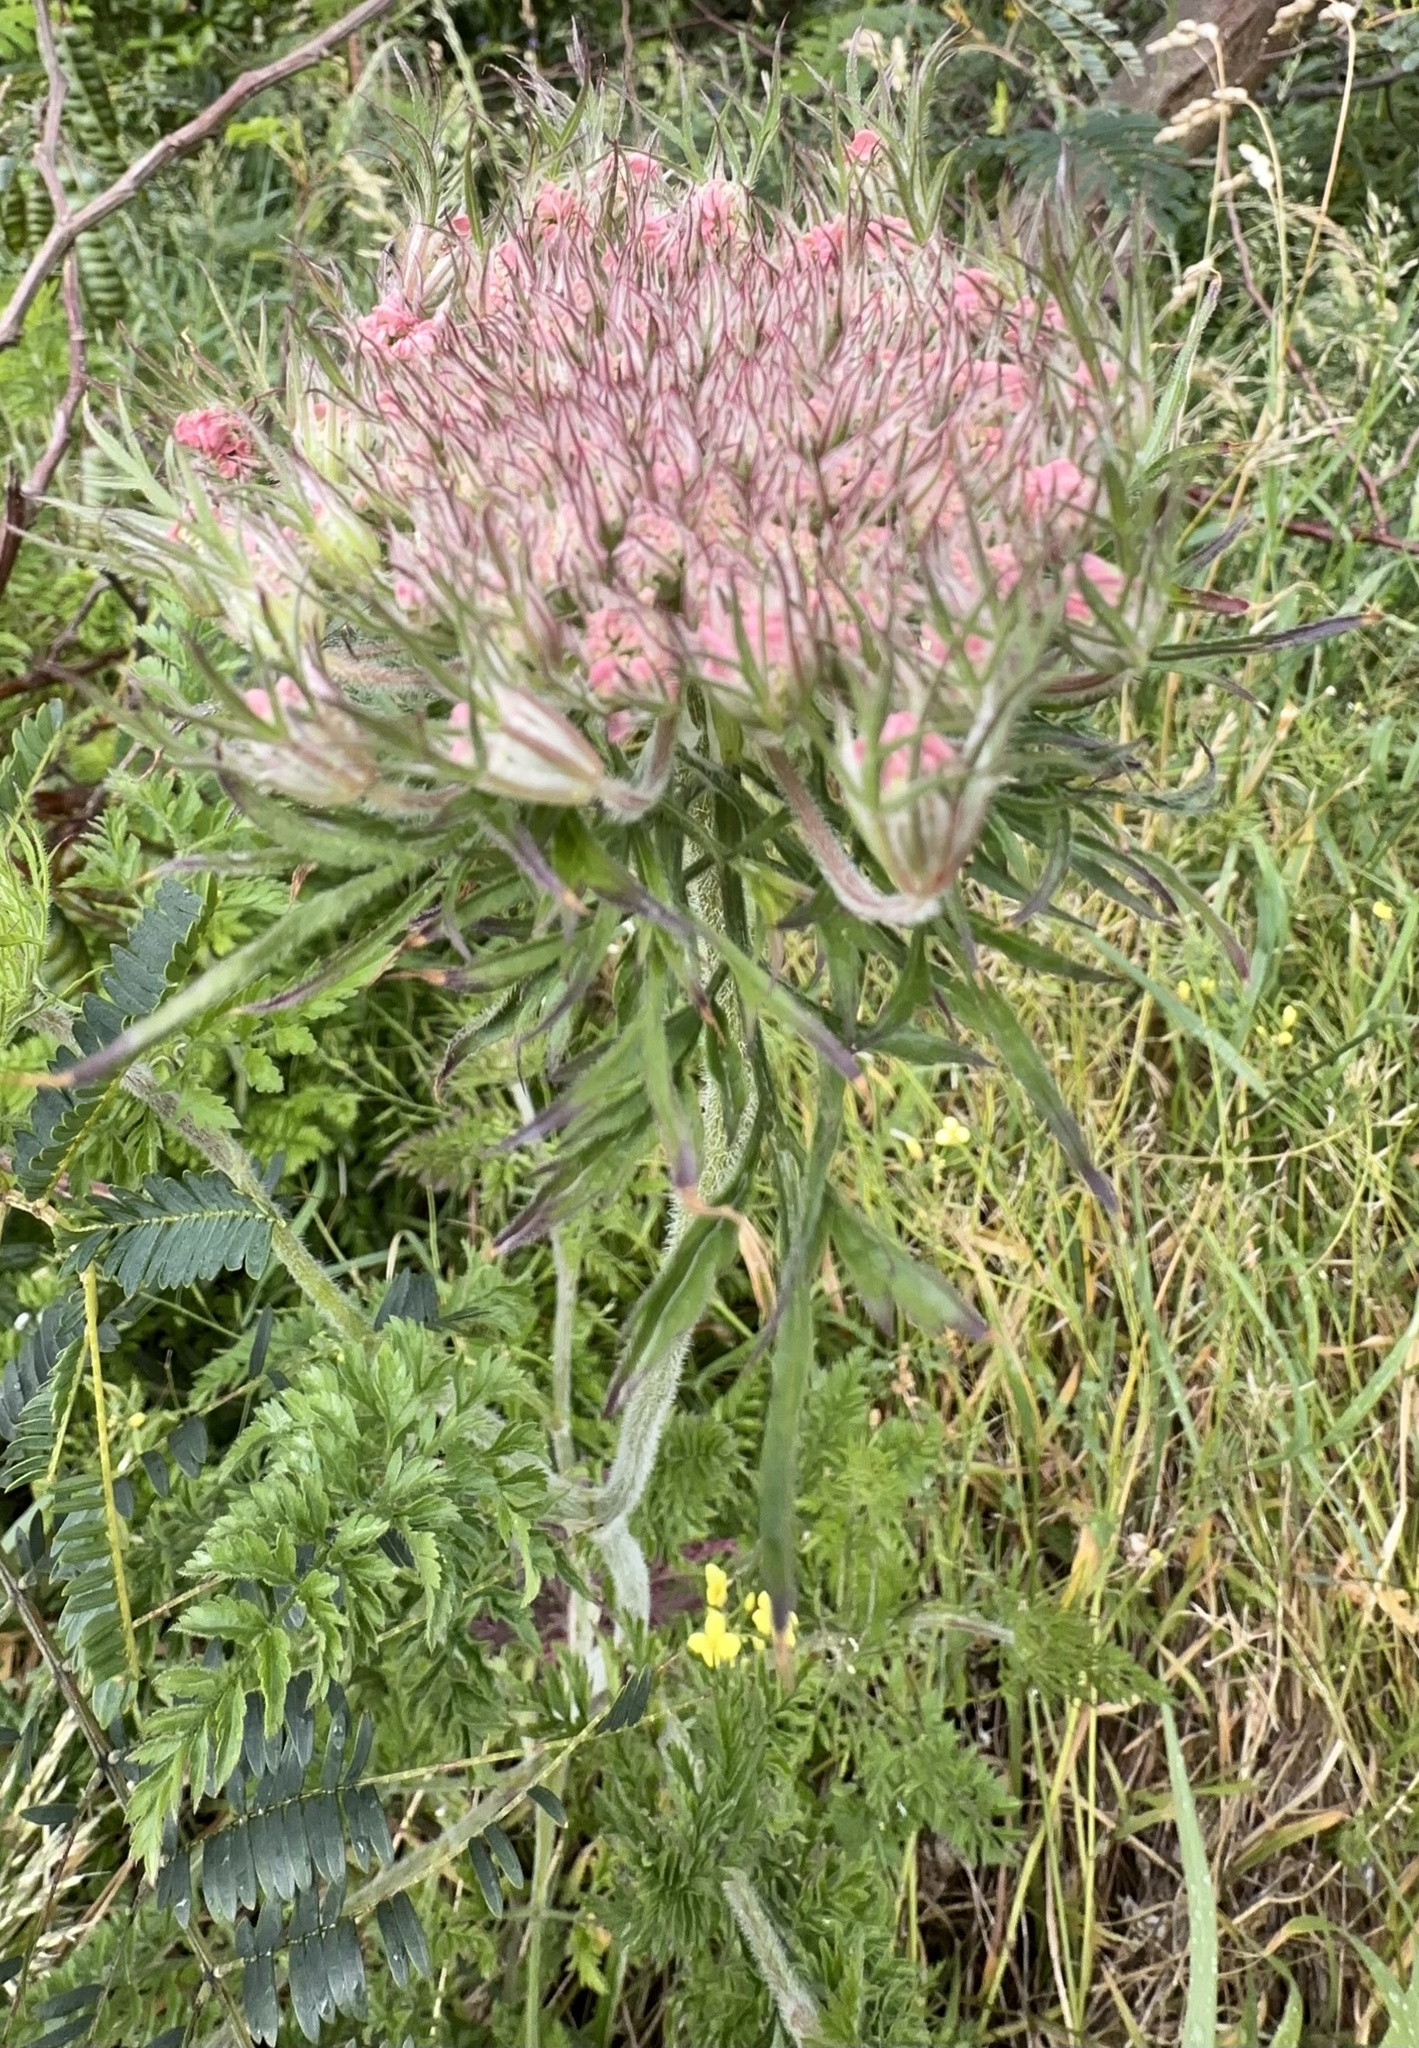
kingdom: Plantae
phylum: Tracheophyta
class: Magnoliopsida
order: Apiales
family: Apiaceae
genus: Daucus
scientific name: Daucus carota
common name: Wild carrot
